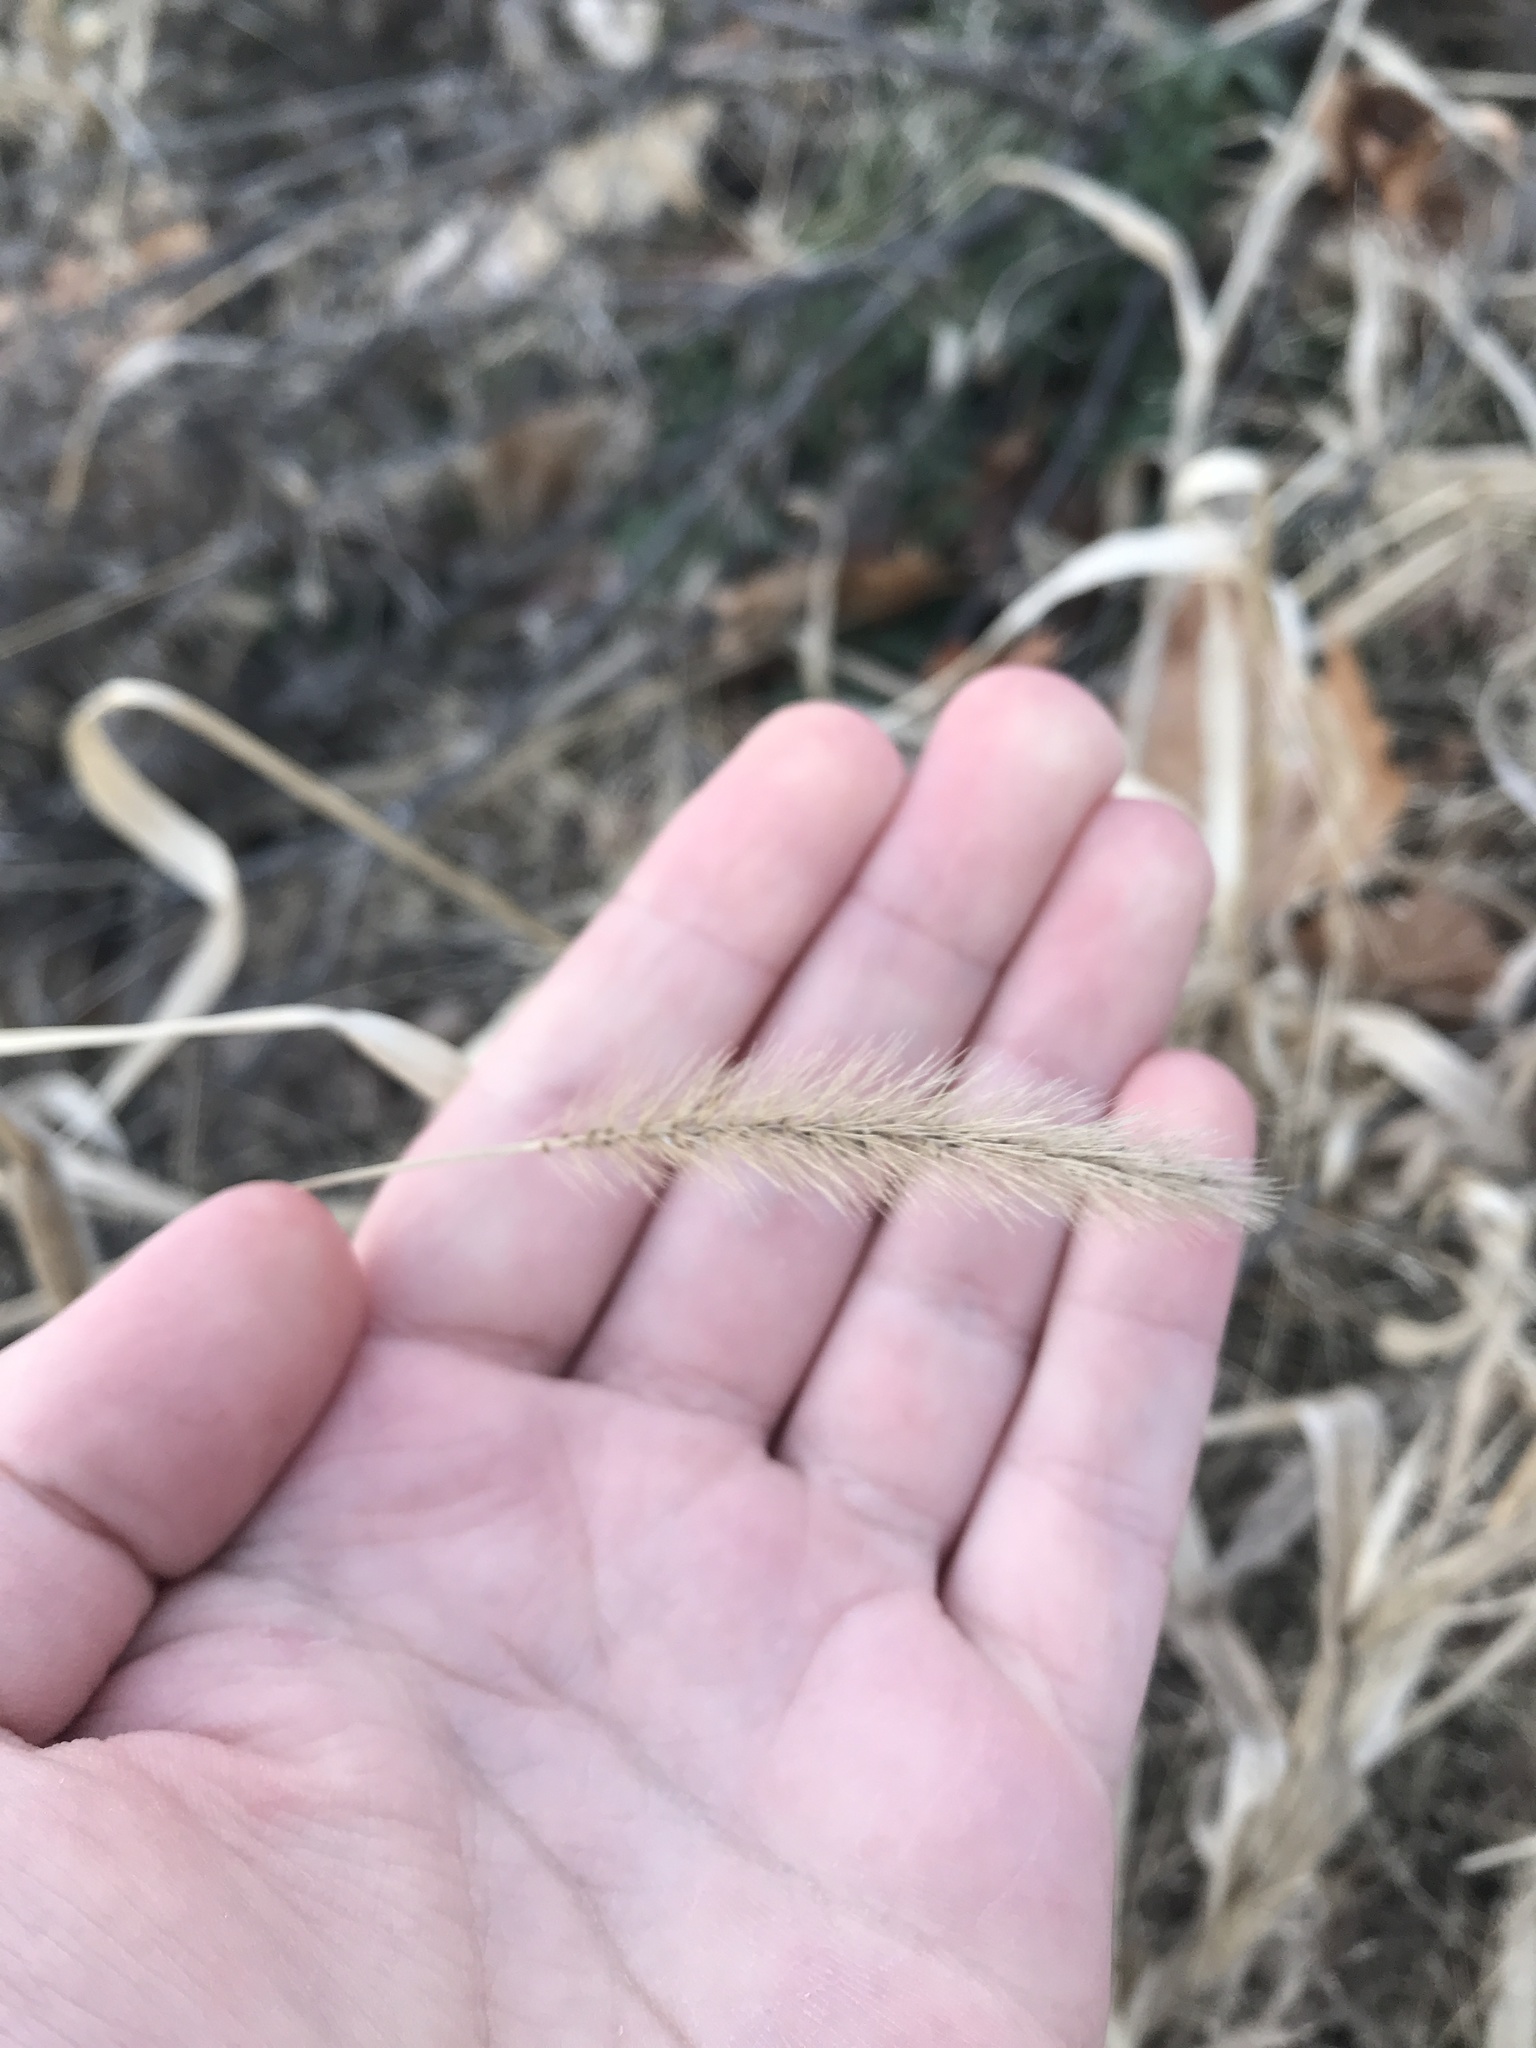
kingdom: Plantae
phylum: Tracheophyta
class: Liliopsida
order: Poales
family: Poaceae
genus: Setaria
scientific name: Setaria viridis
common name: Green bristlegrass
